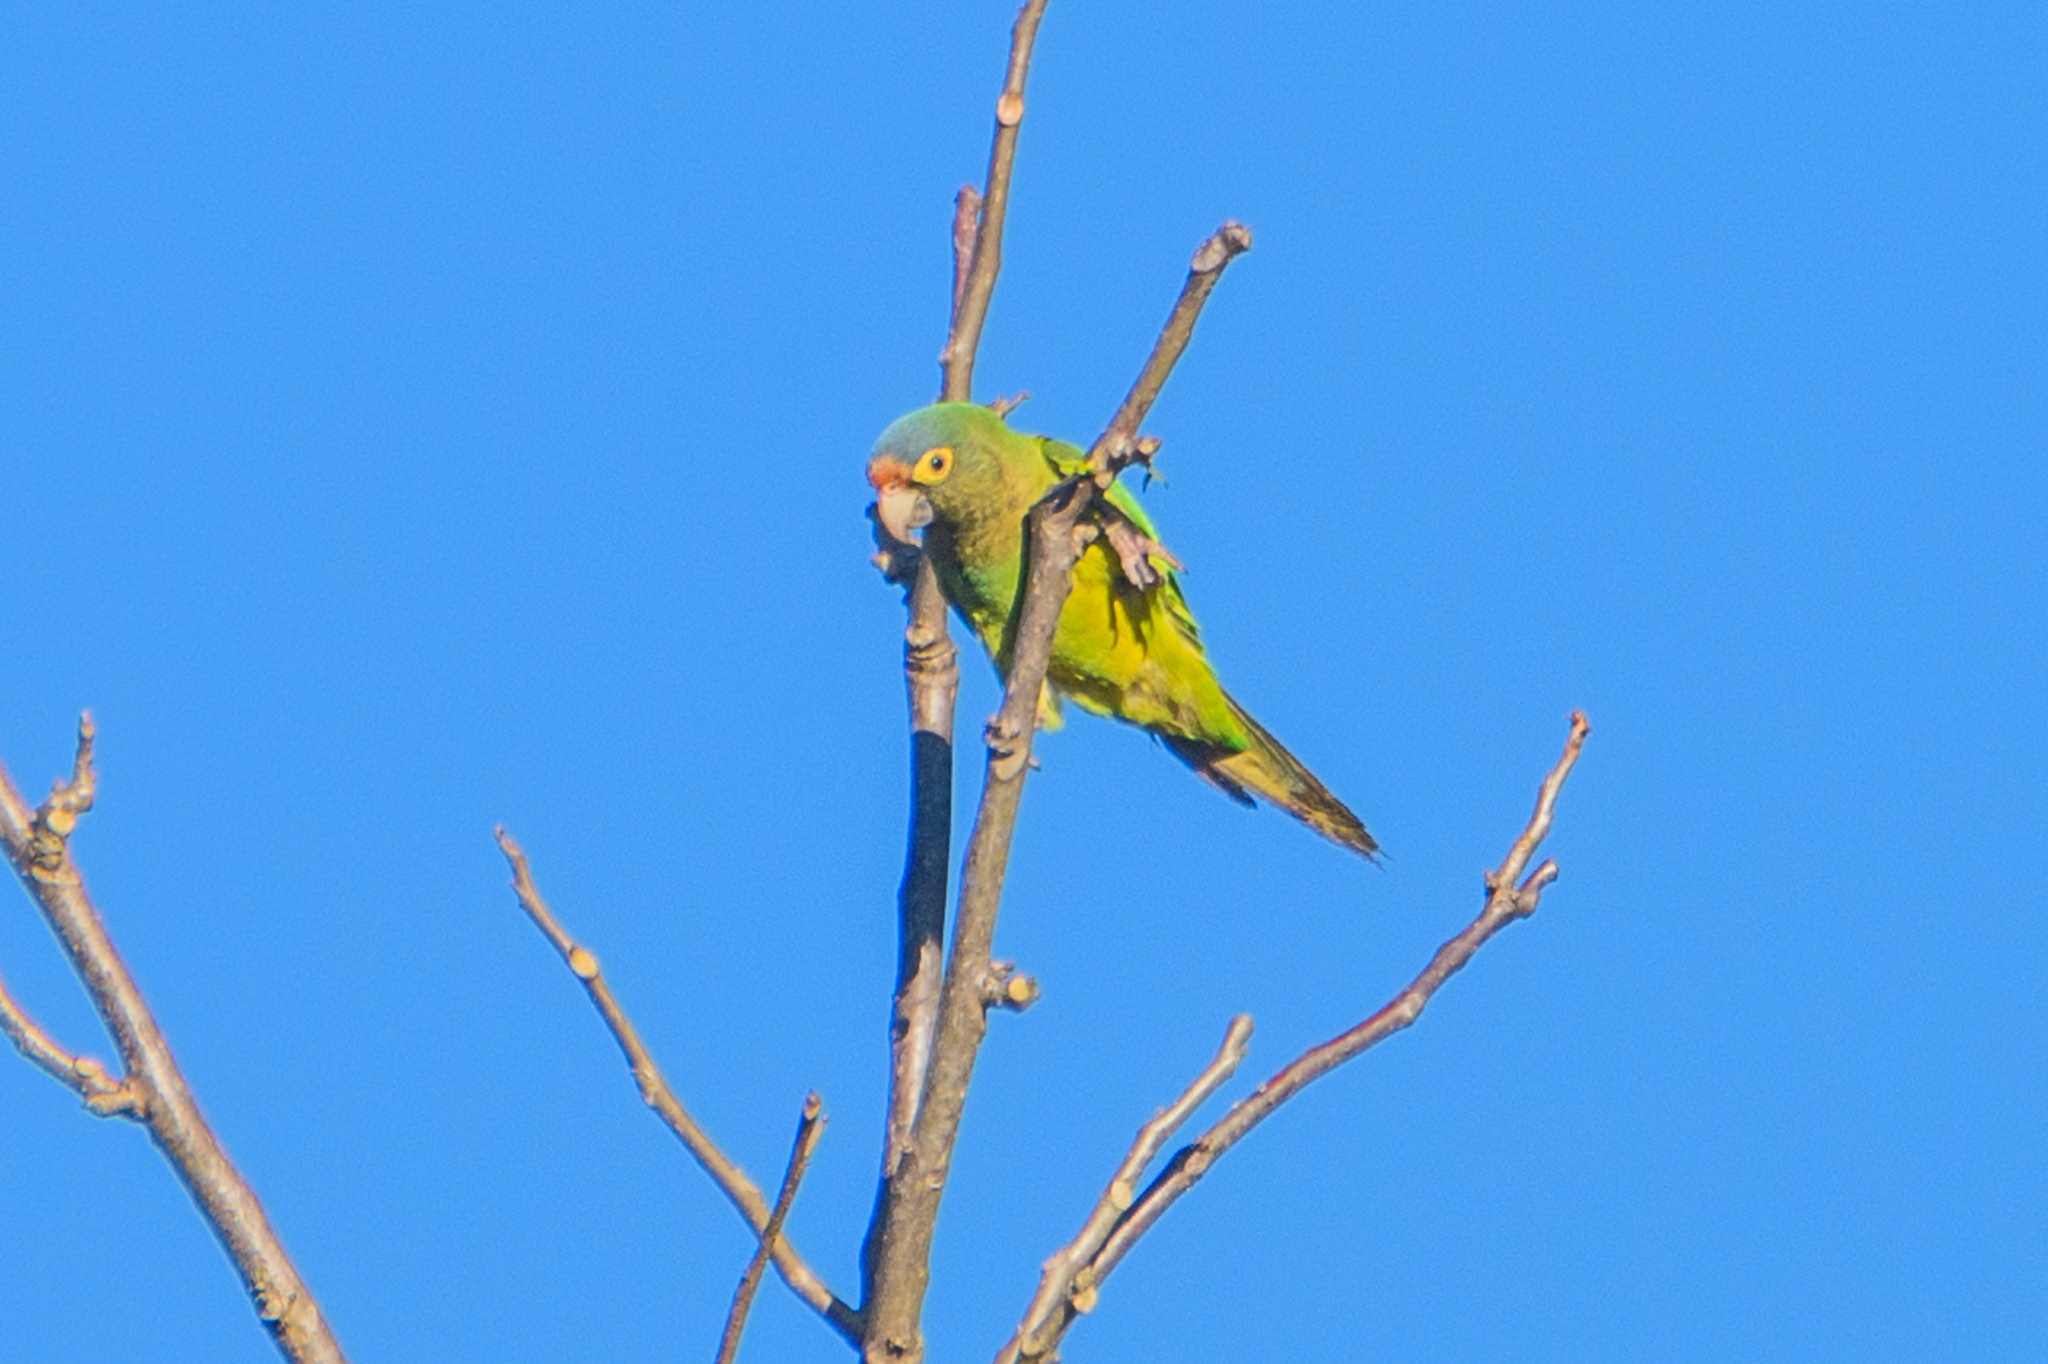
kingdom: Animalia
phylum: Chordata
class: Aves
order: Psittaciformes
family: Psittacidae
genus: Aratinga
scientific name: Aratinga canicularis
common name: Orange-fronted parakeet
